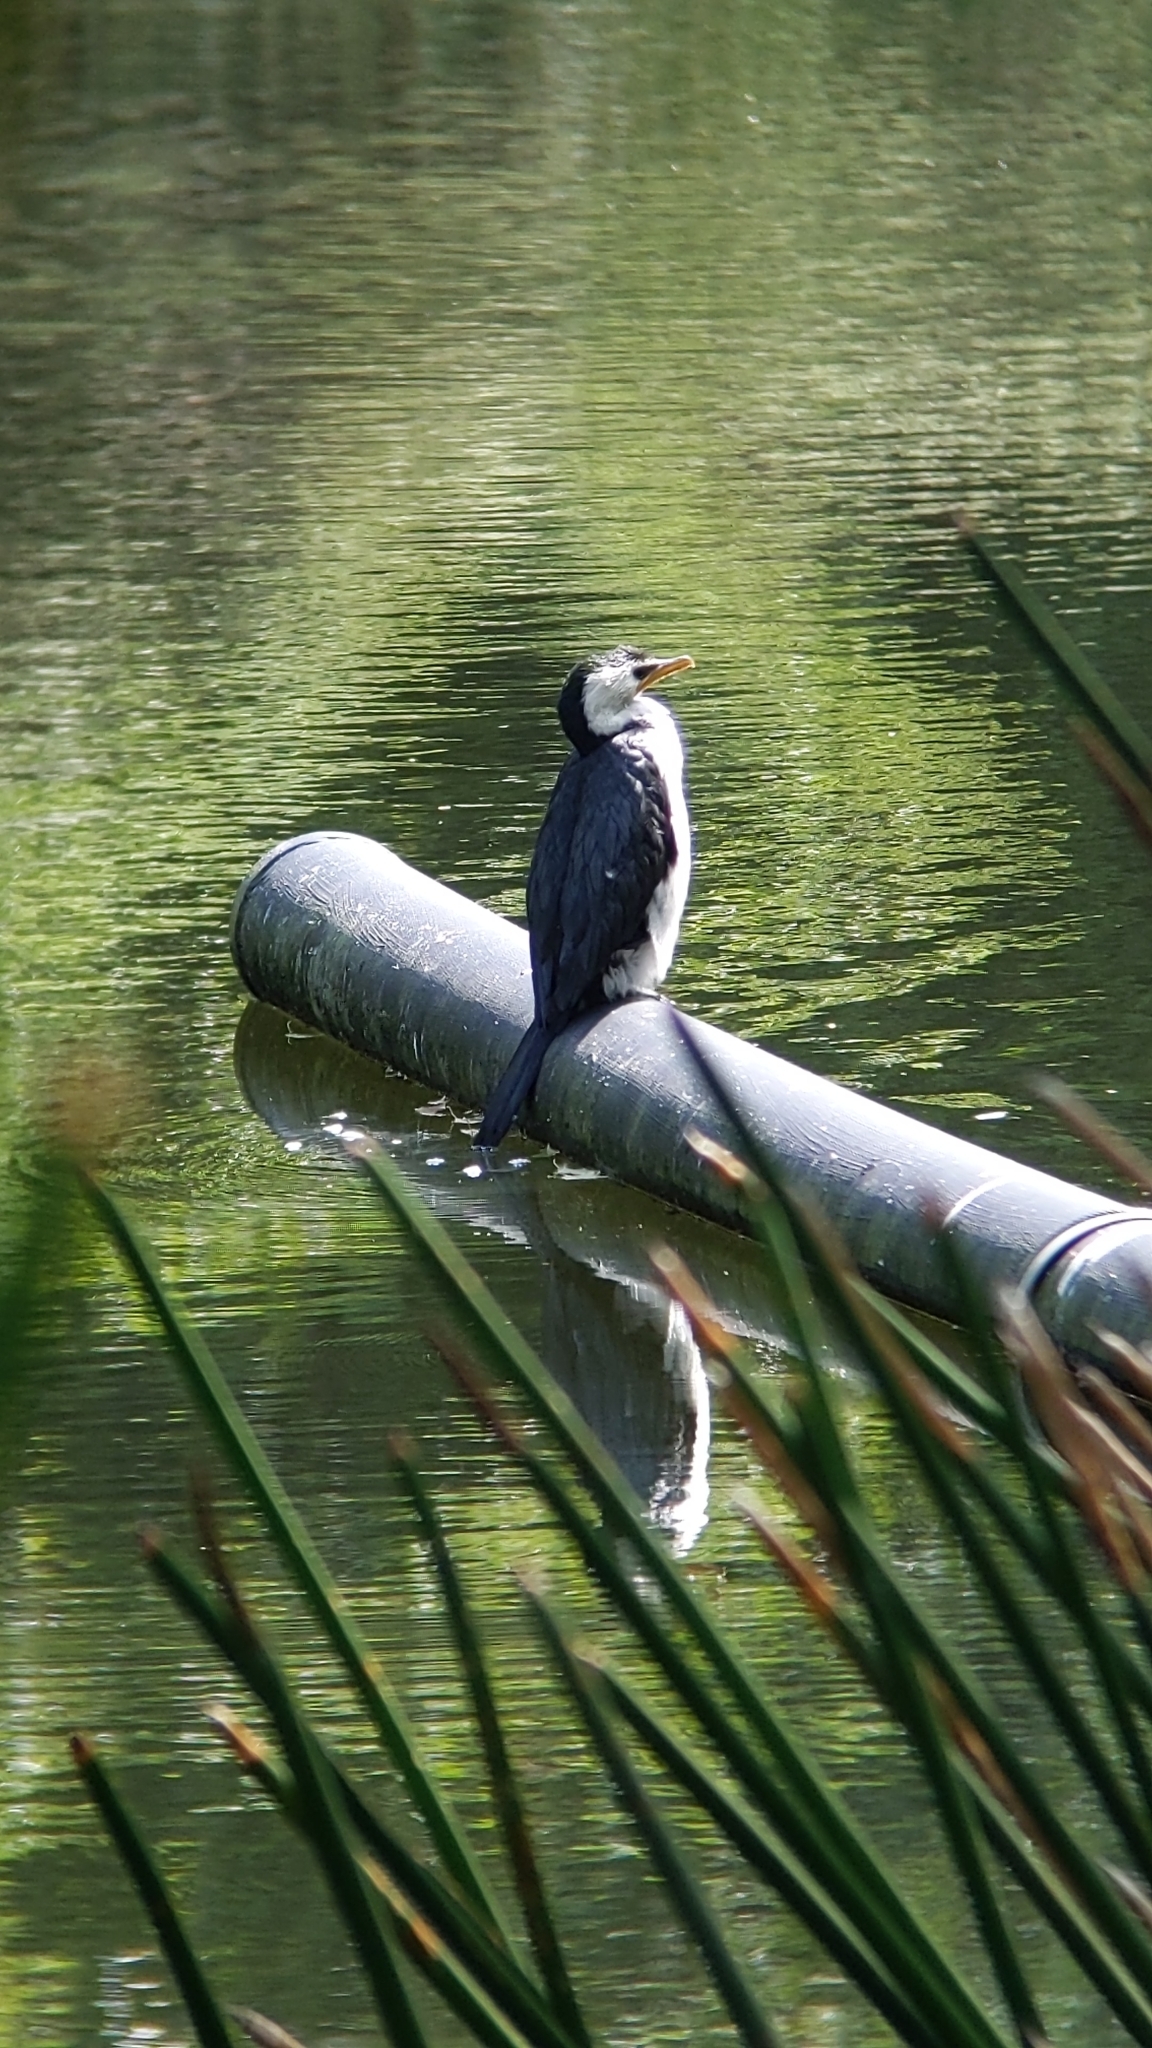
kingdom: Animalia
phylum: Chordata
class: Aves
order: Suliformes
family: Phalacrocoracidae
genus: Microcarbo
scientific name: Microcarbo melanoleucos
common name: Little pied cormorant
